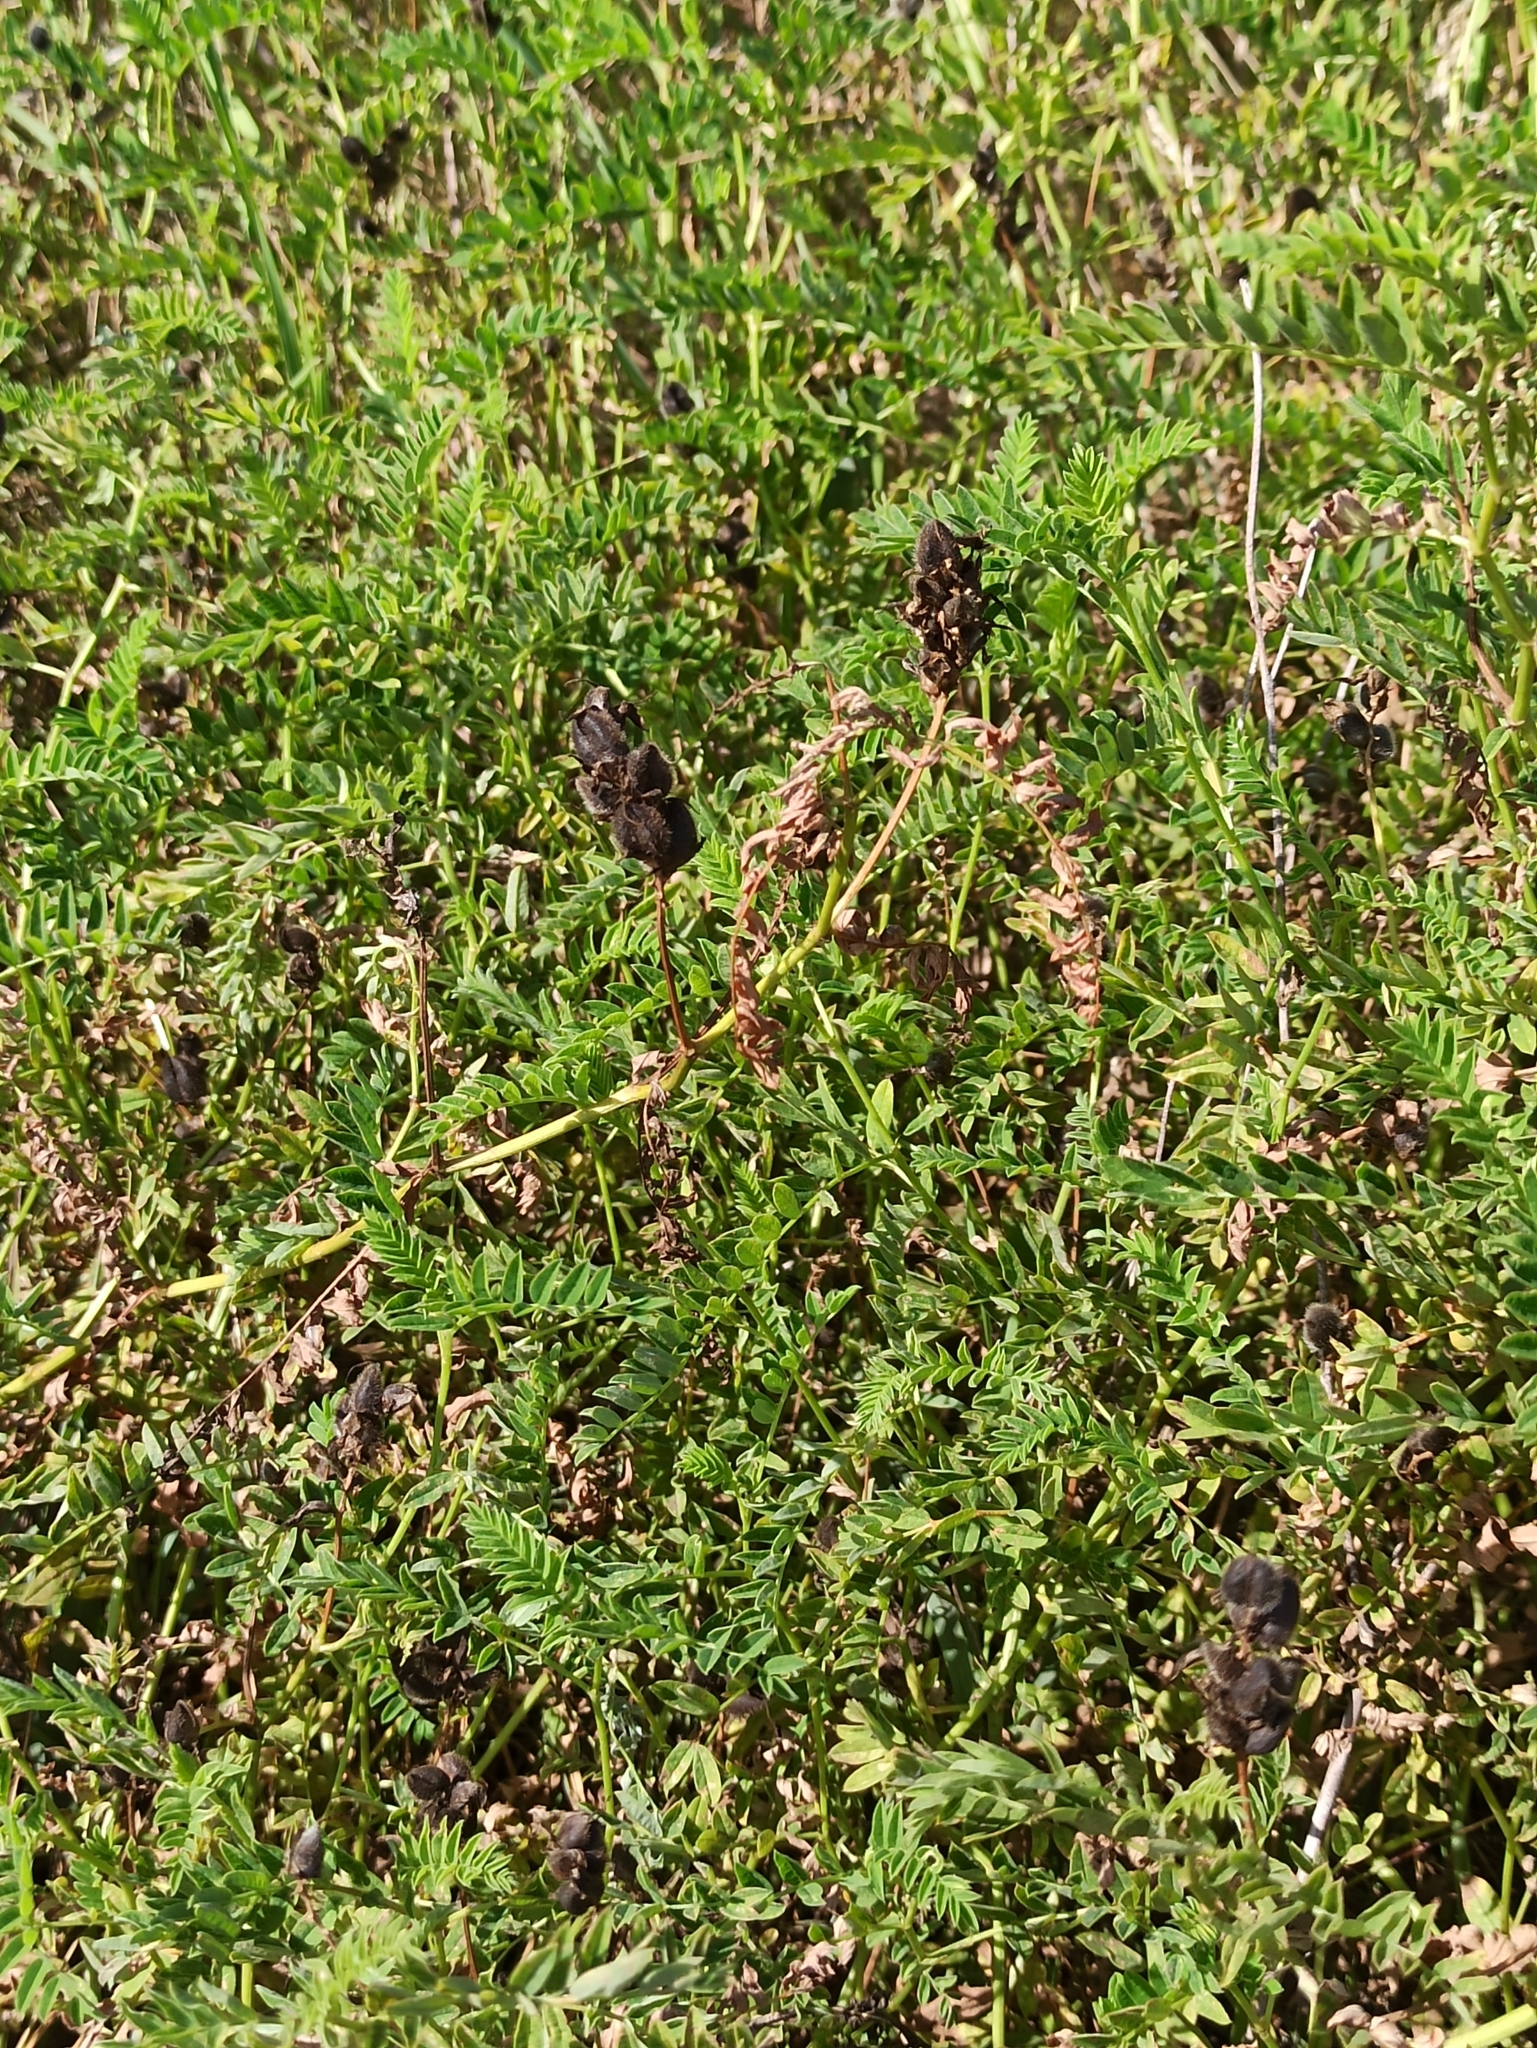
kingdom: Plantae
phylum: Tracheophyta
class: Magnoliopsida
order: Fabales
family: Fabaceae
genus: Astragalus
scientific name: Astragalus danicus
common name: Purple milk-vetch
